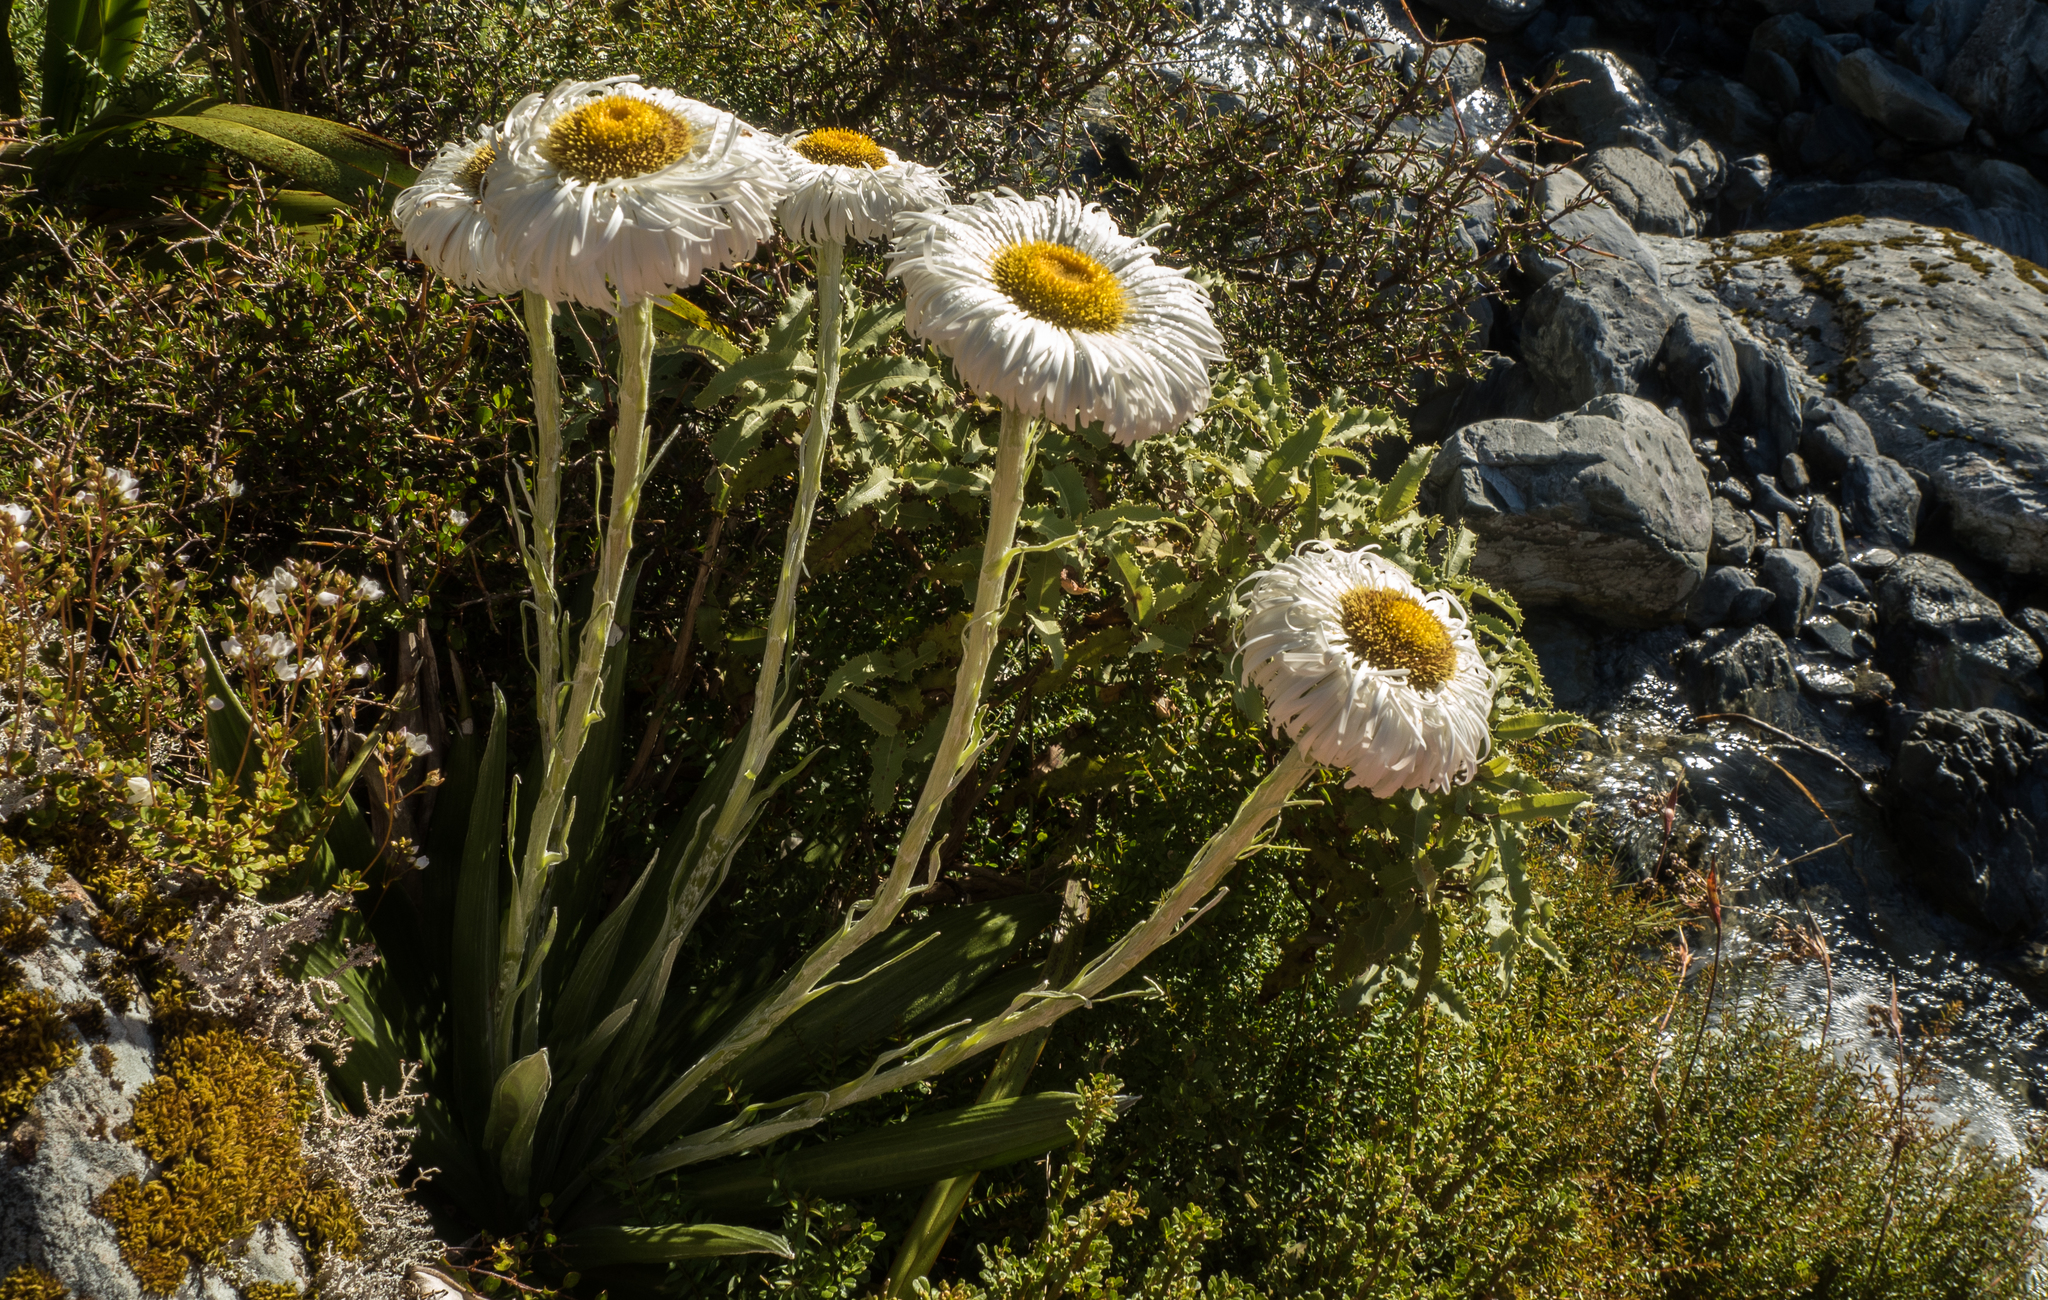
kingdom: Plantae
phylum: Tracheophyta
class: Magnoliopsida
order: Asterales
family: Asteraceae
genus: Celmisia
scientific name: Celmisia semicordata
